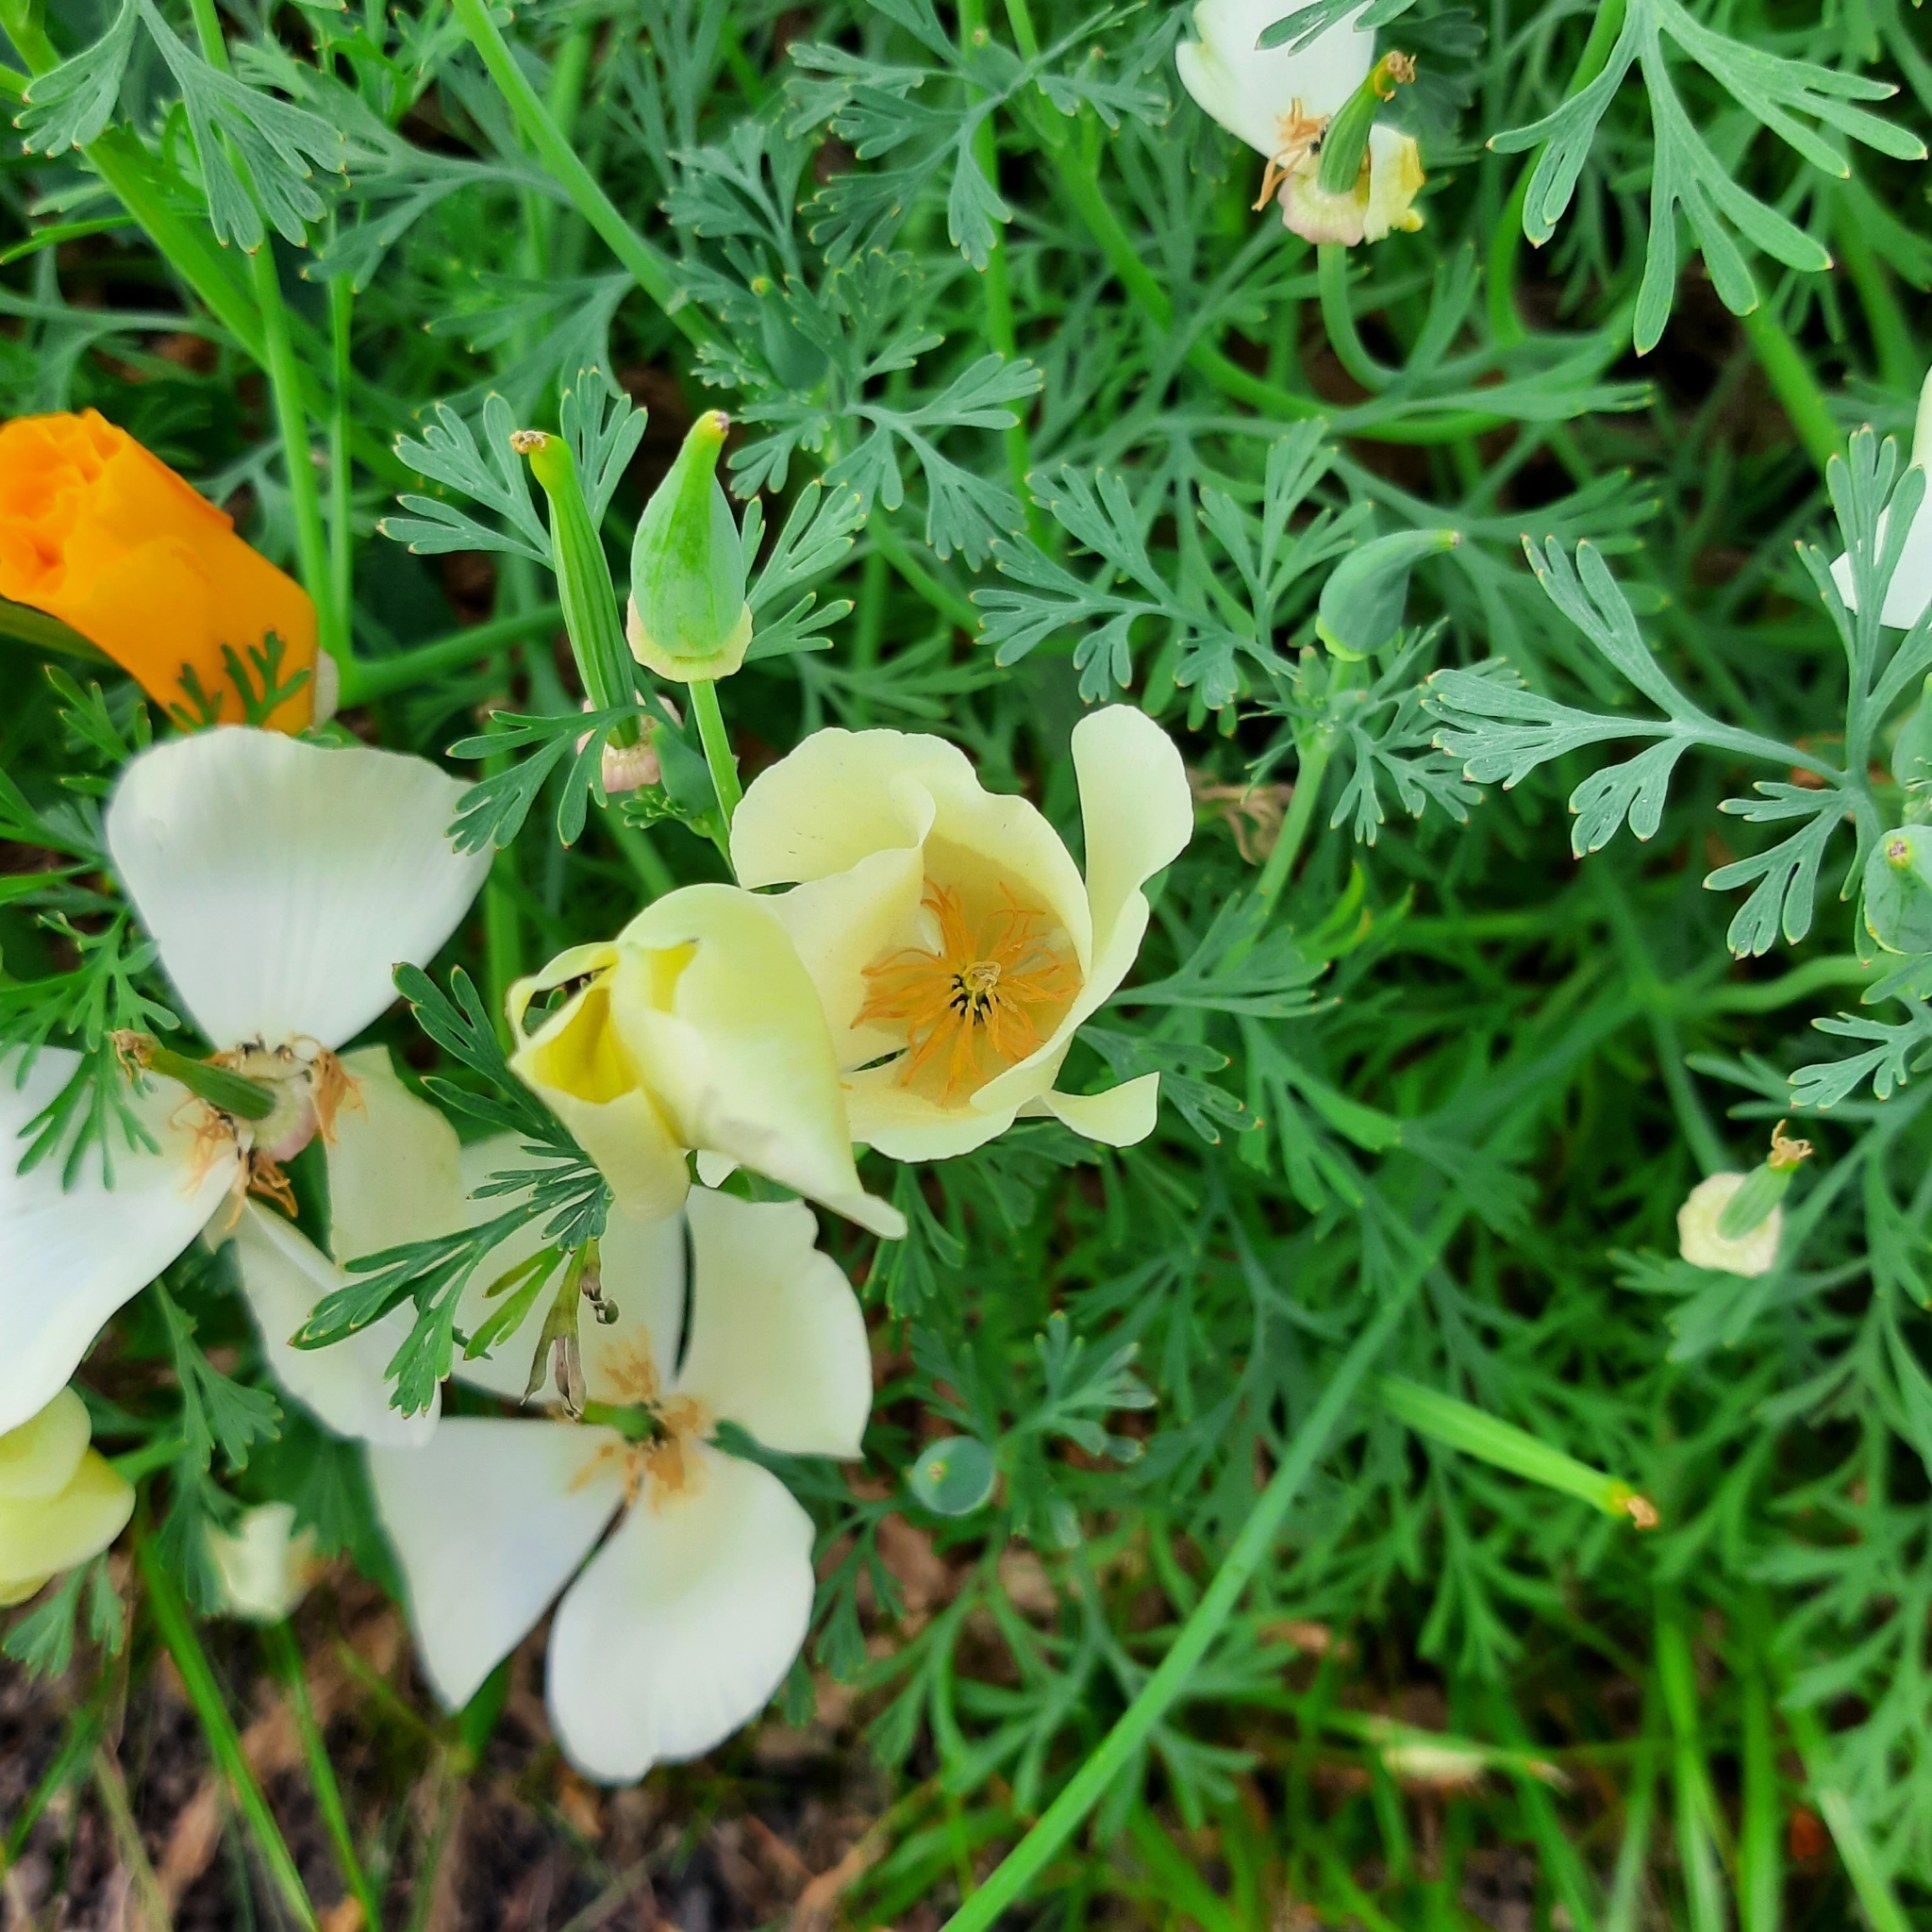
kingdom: Plantae
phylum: Tracheophyta
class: Magnoliopsida
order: Ranunculales
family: Papaveraceae
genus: Eschscholzia
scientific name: Eschscholzia californica
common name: California poppy
